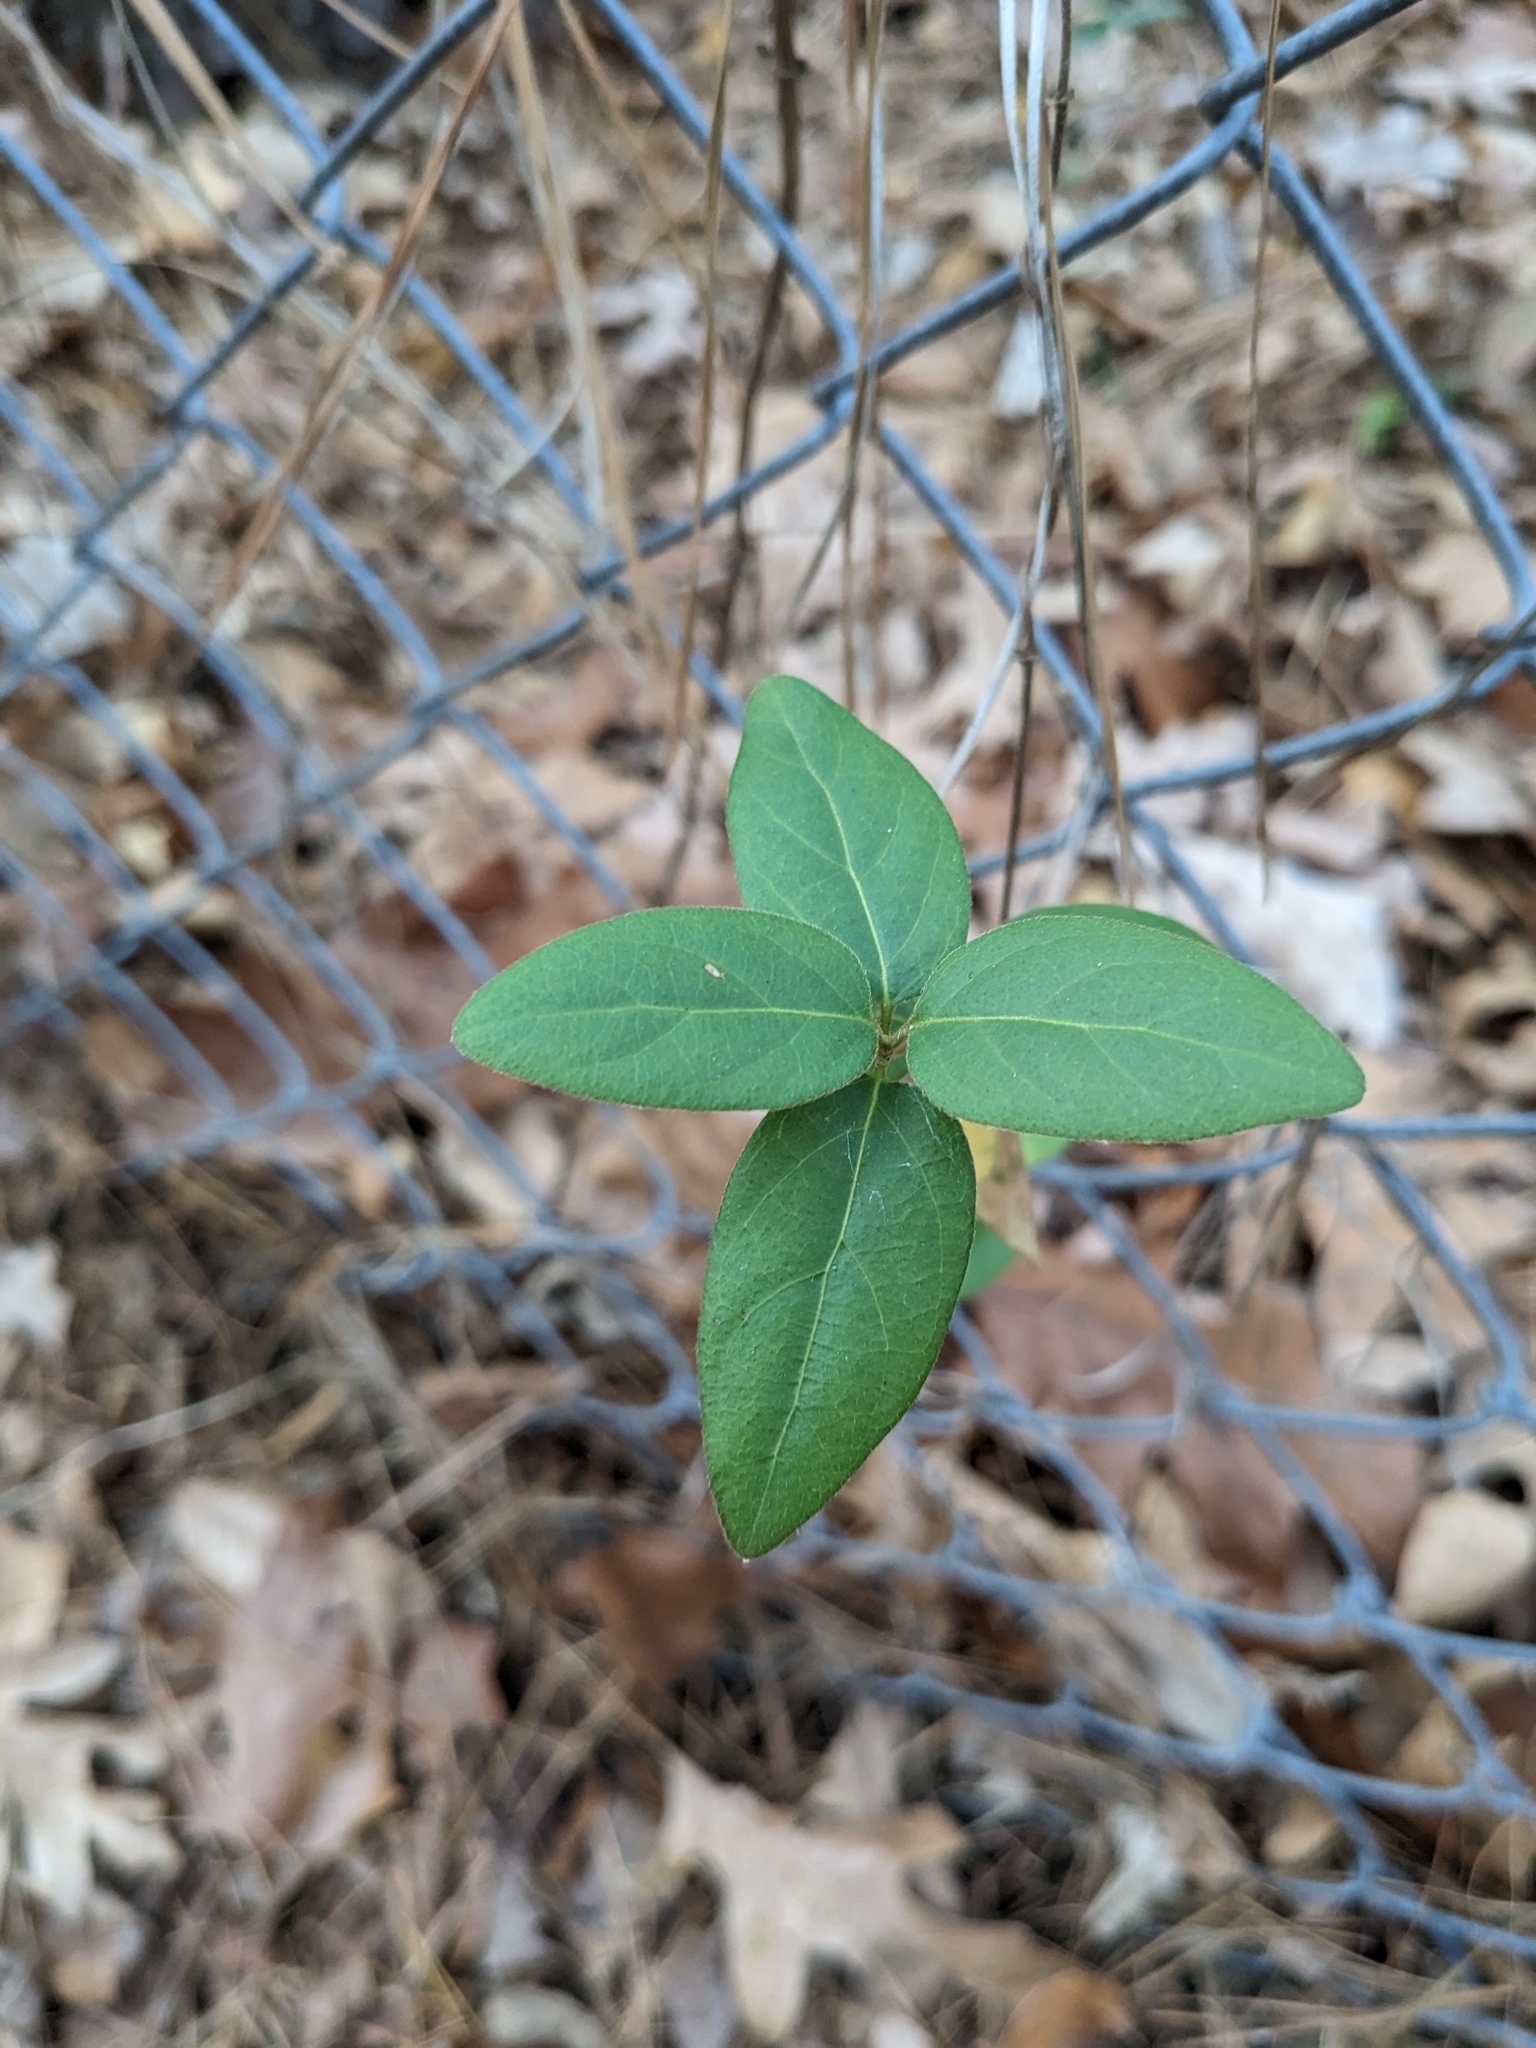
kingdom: Plantae
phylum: Tracheophyta
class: Magnoliopsida
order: Dipsacales
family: Caprifoliaceae
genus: Lonicera
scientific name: Lonicera japonica
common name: Japanese honeysuckle
